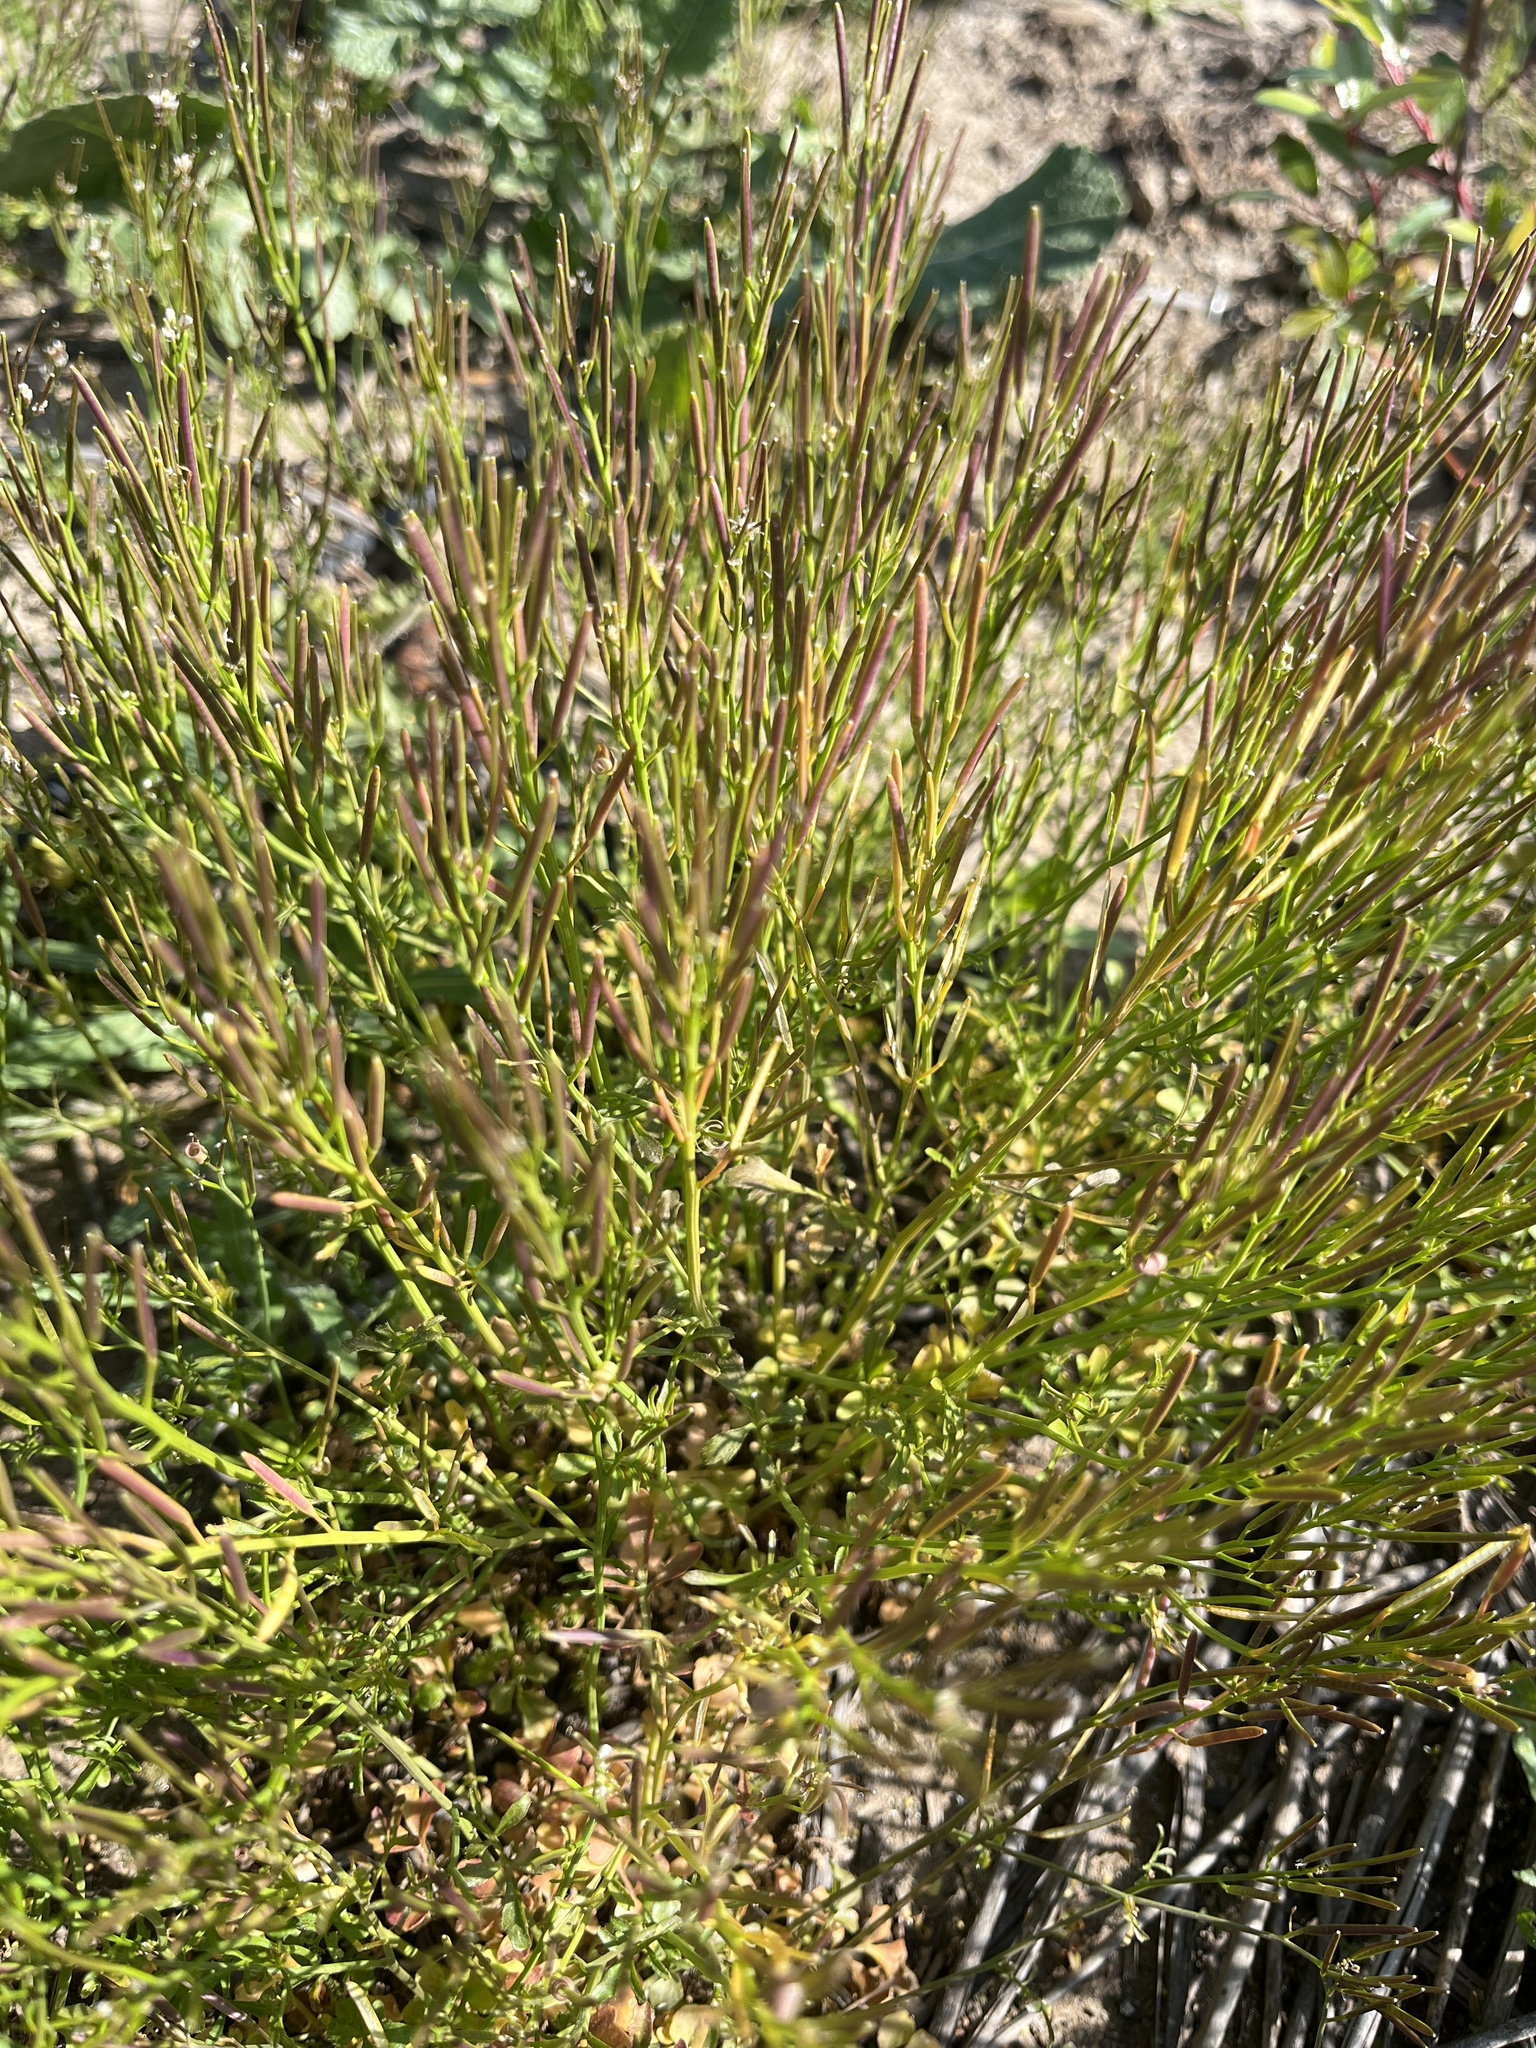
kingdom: Plantae
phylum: Tracheophyta
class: Magnoliopsida
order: Brassicales
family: Brassicaceae
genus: Cardamine
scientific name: Cardamine hirsuta
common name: Hairy bittercress
